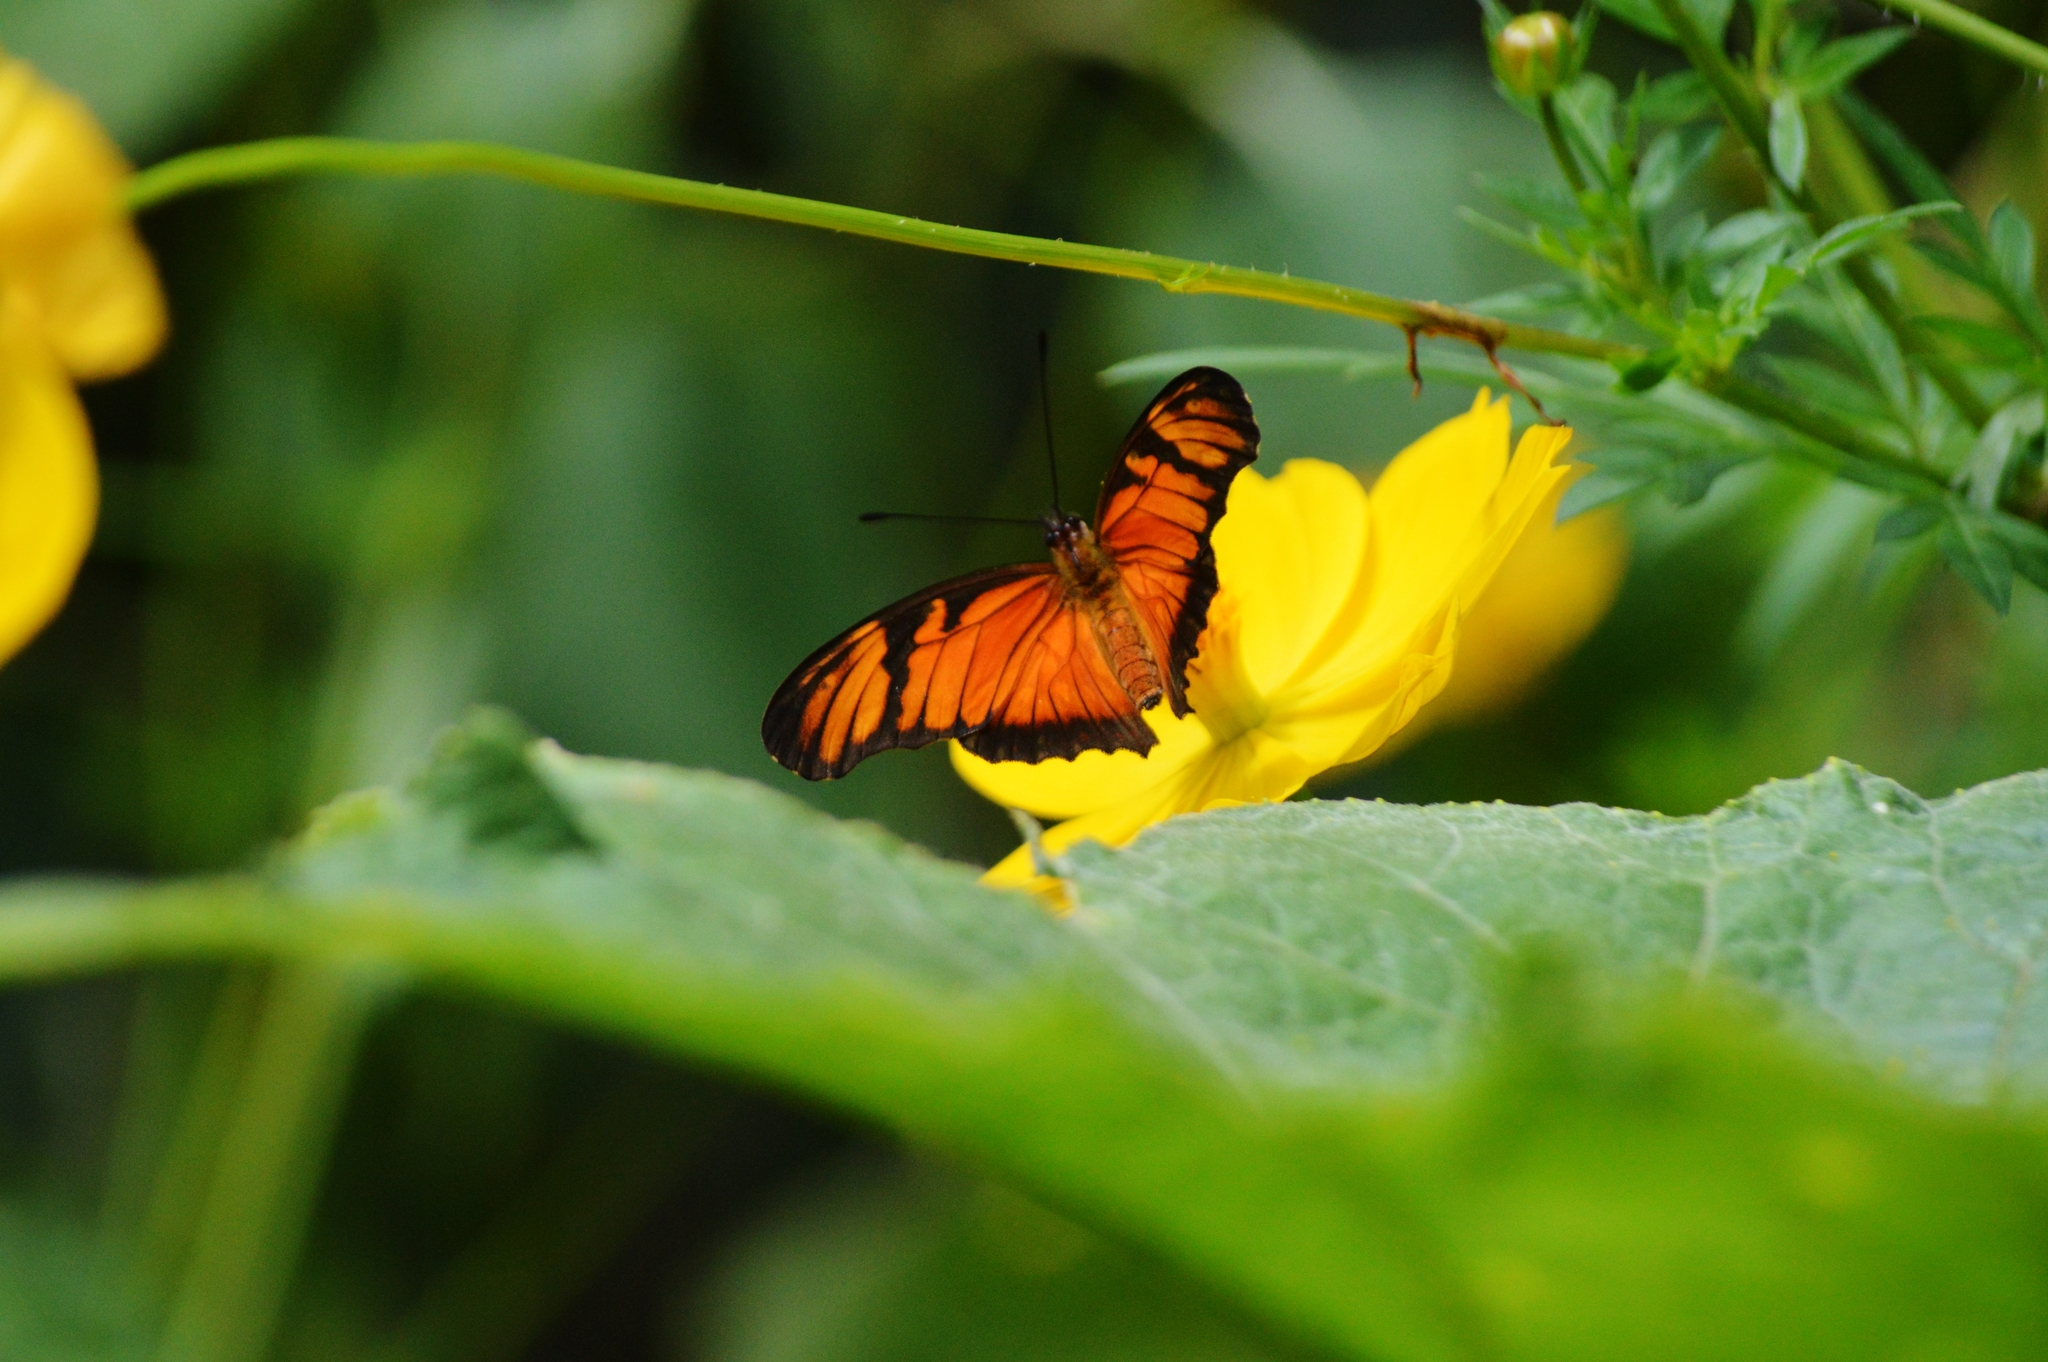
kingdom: Animalia
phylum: Arthropoda
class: Insecta
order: Lepidoptera
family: Nymphalidae
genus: Dione
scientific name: Dione juno
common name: Juno silverspot
